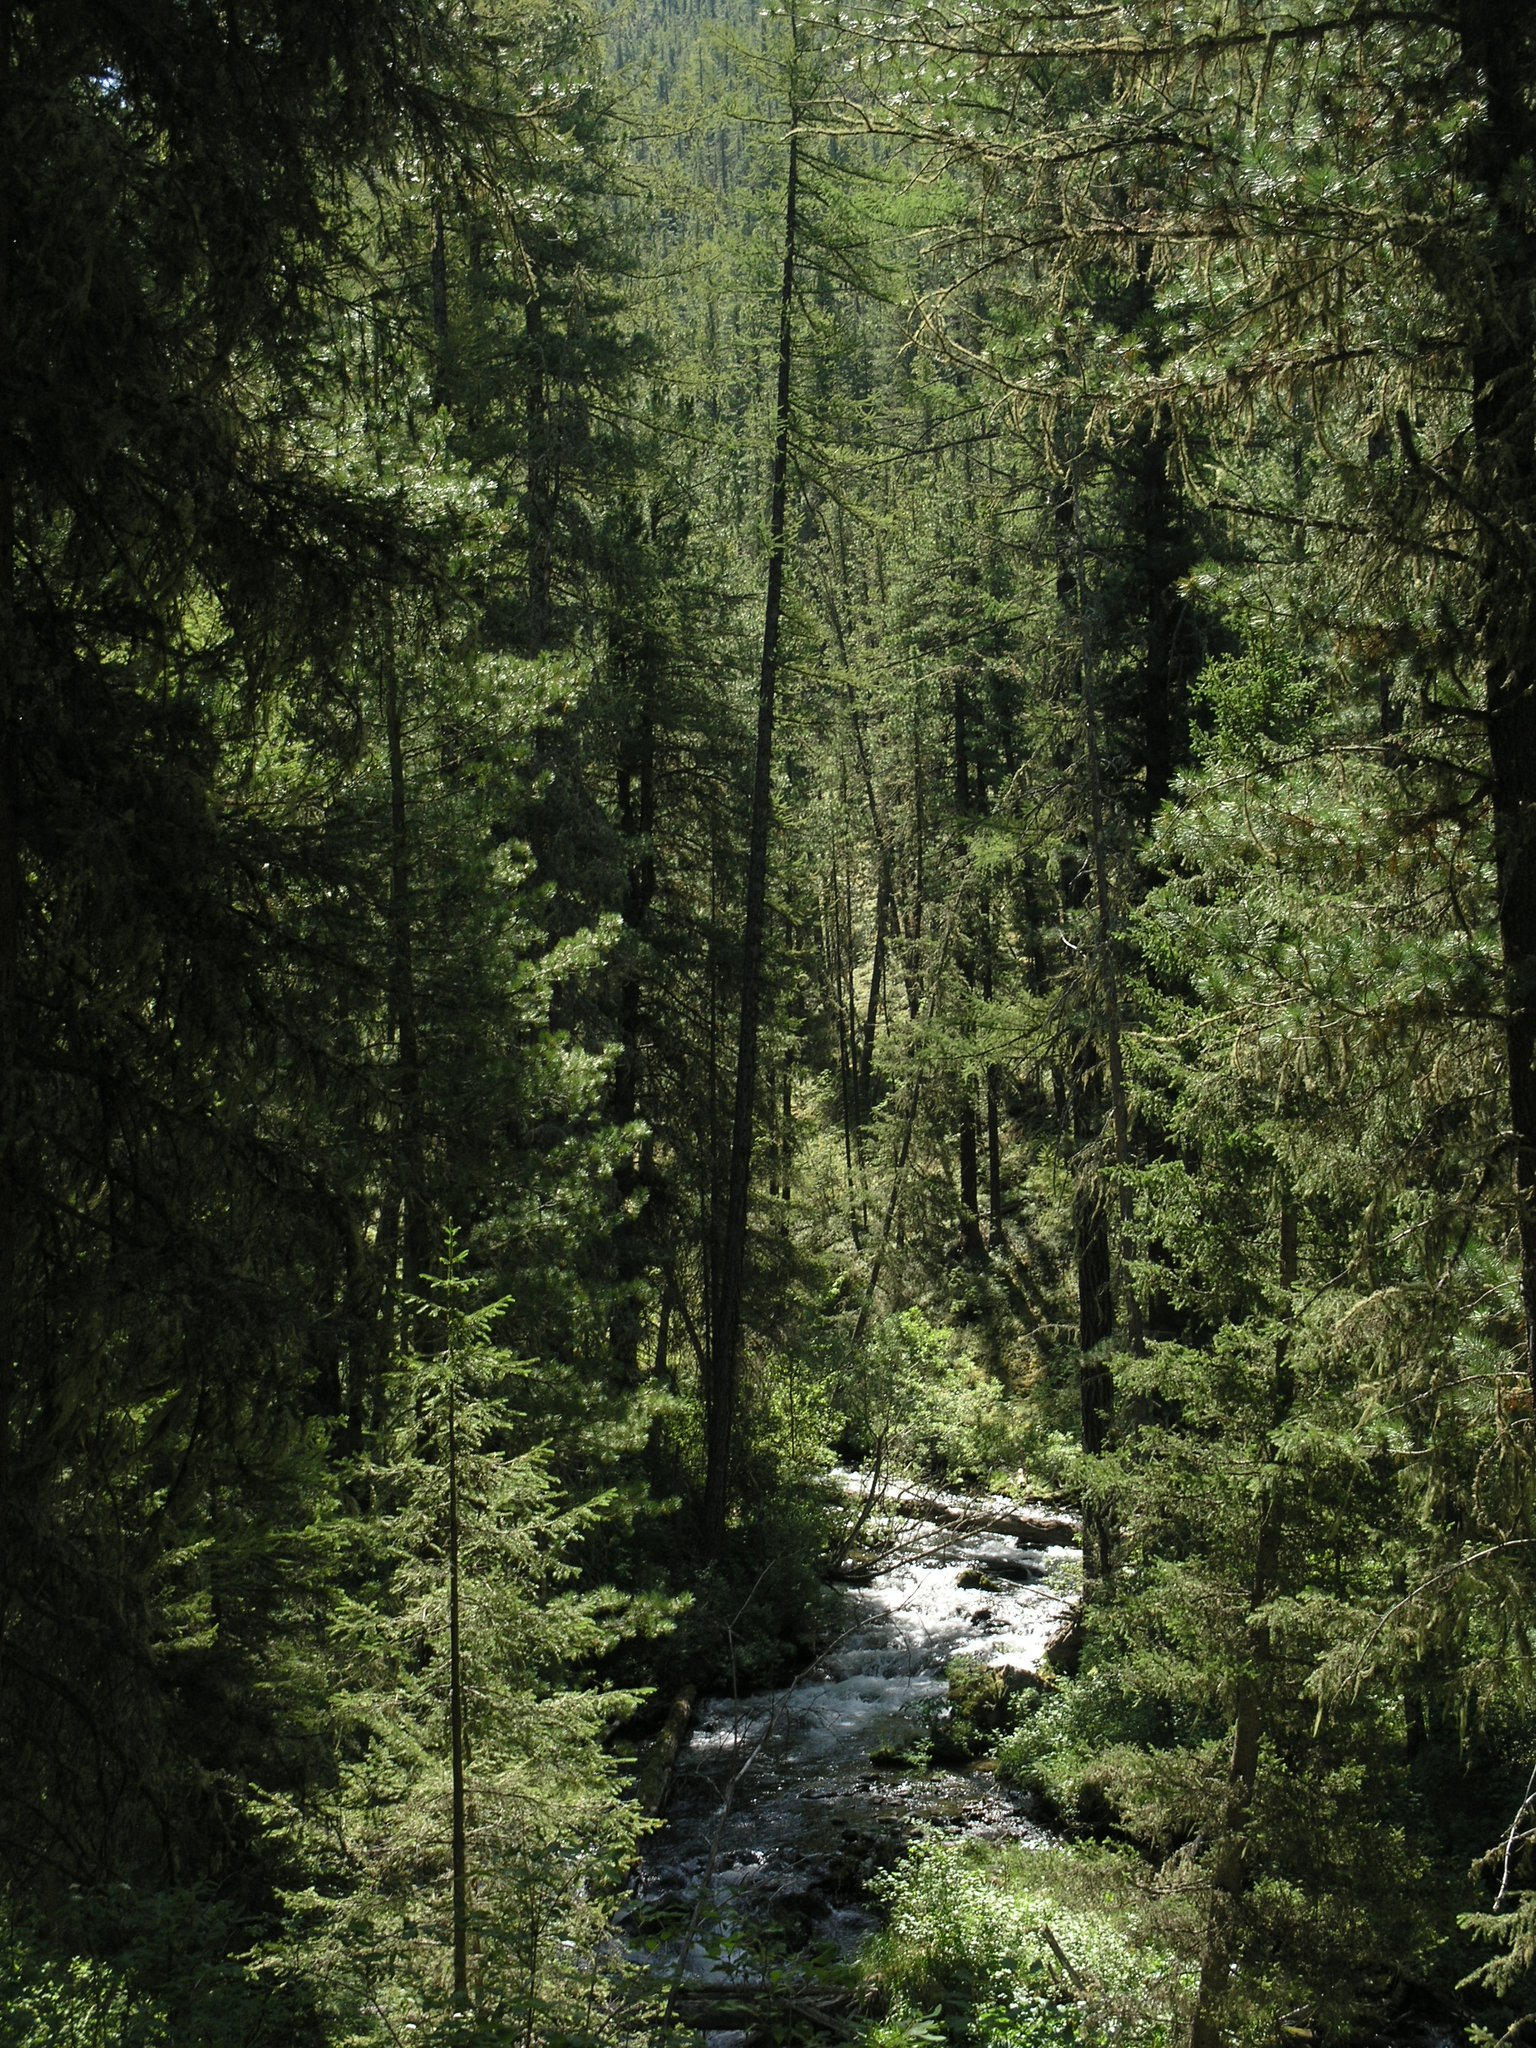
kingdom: Plantae
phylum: Tracheophyta
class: Pinopsida
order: Pinales
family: Pinaceae
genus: Picea
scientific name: Picea obovata
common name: Siberian spruce
